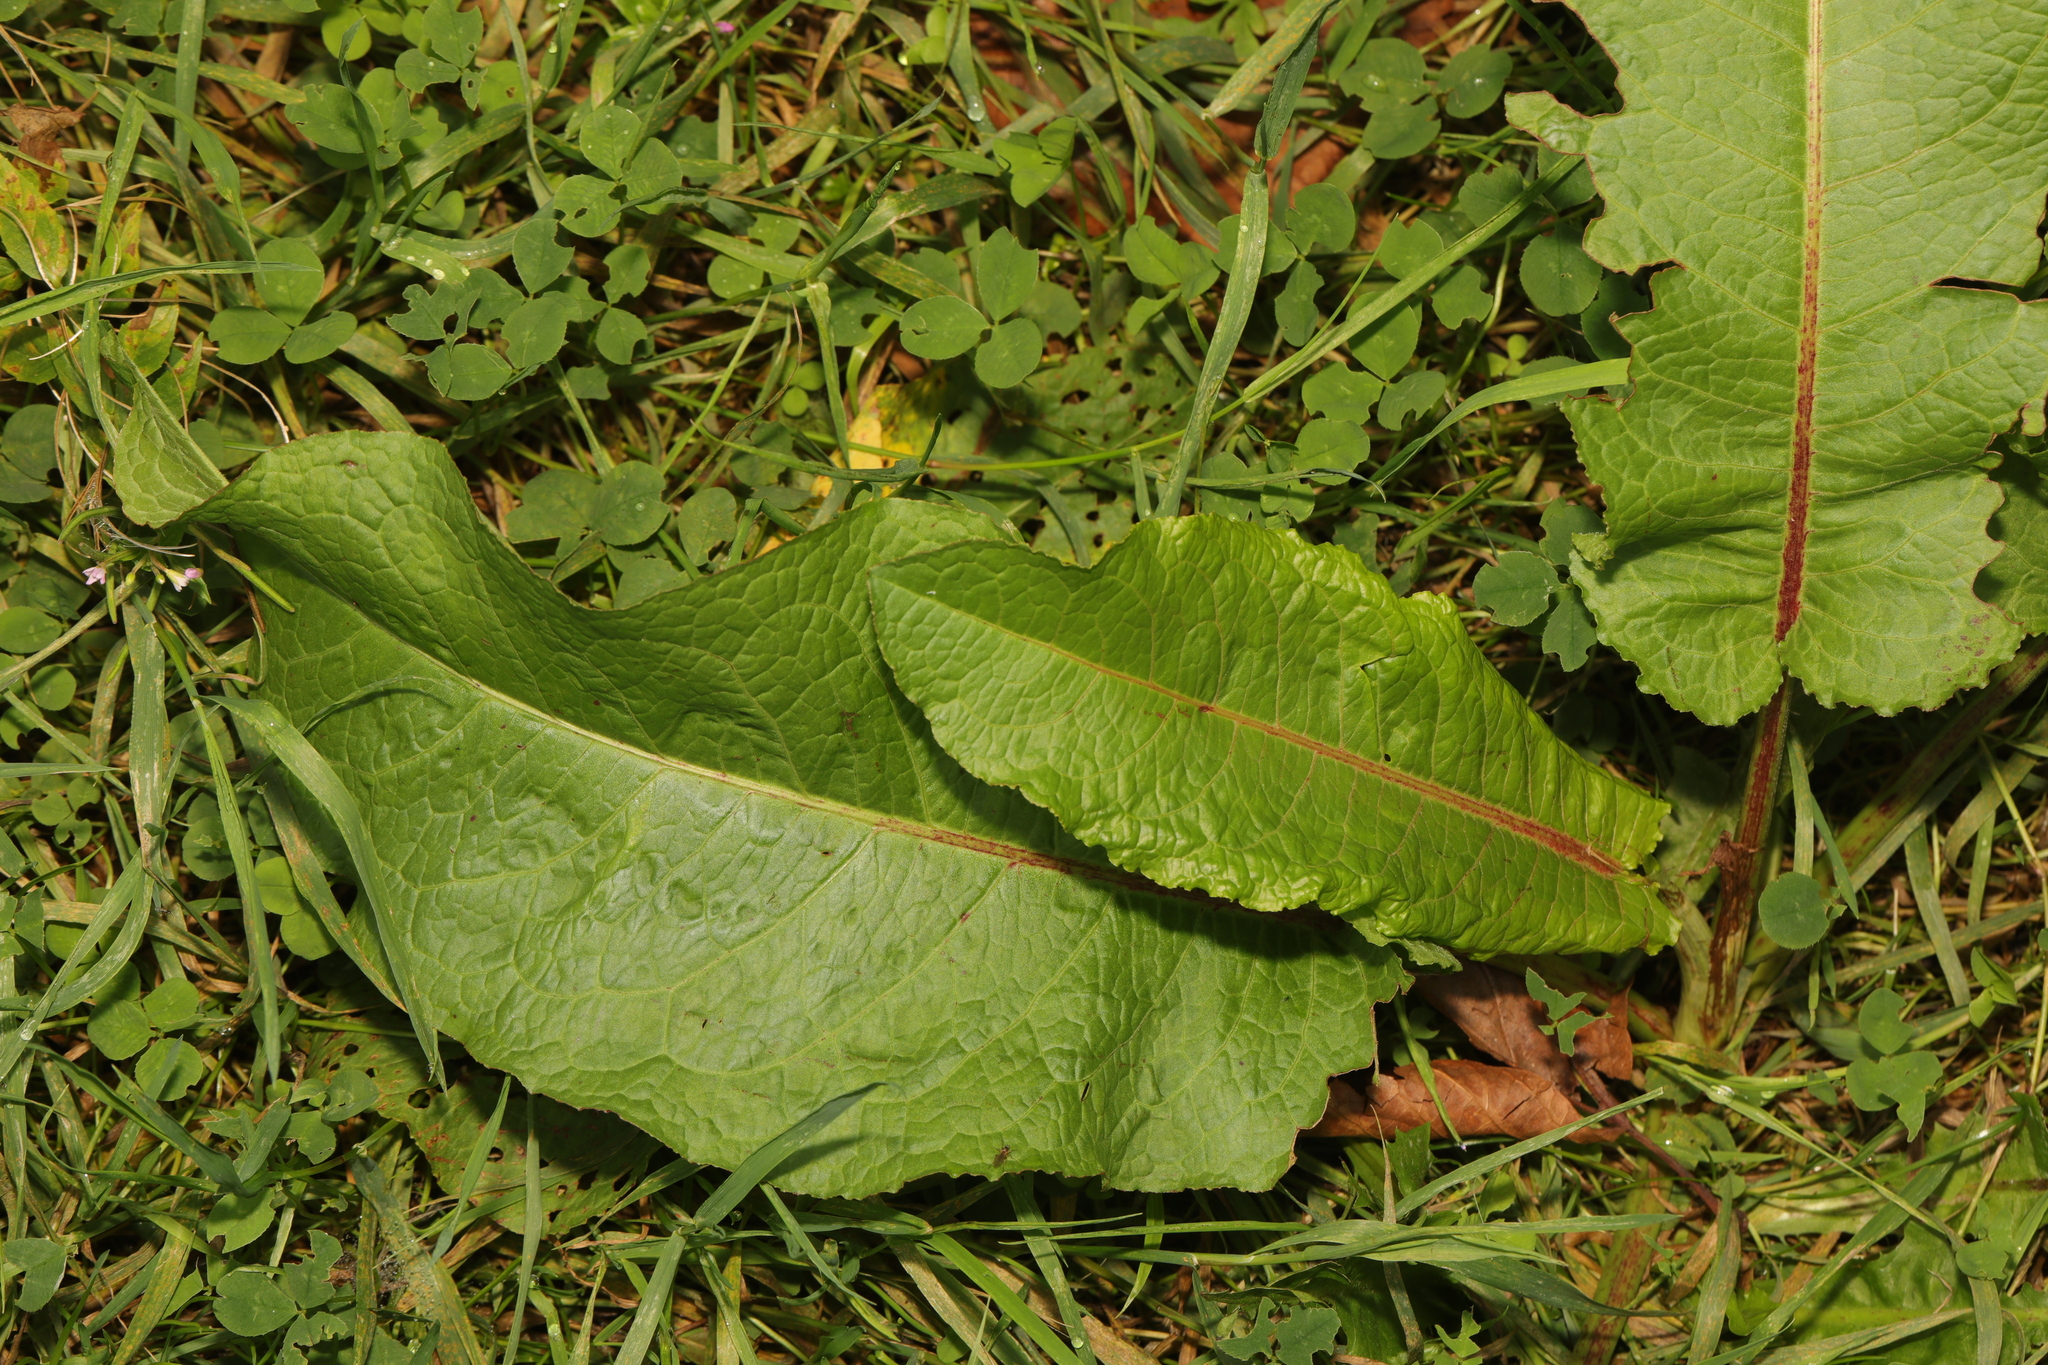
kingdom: Plantae
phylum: Tracheophyta
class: Magnoliopsida
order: Caryophyllales
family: Polygonaceae
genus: Rumex
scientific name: Rumex obtusifolius
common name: Bitter dock
